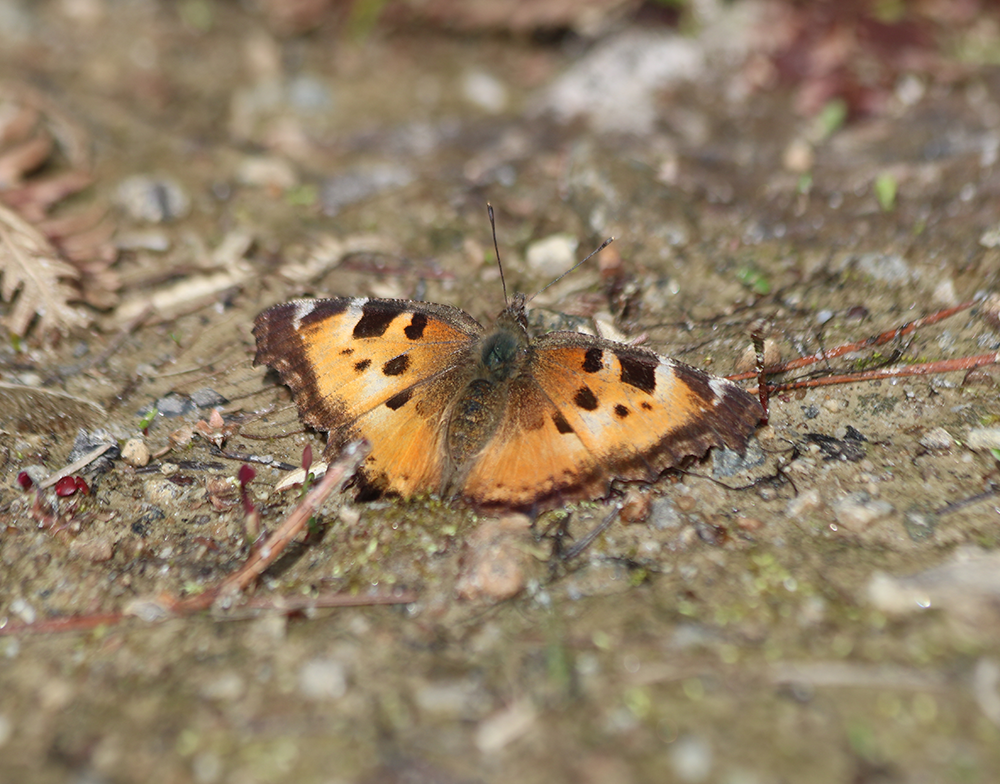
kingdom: Animalia
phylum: Arthropoda
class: Insecta
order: Lepidoptera
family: Nymphalidae
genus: Nymphalis
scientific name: Nymphalis californica
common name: California tortoiseshell
